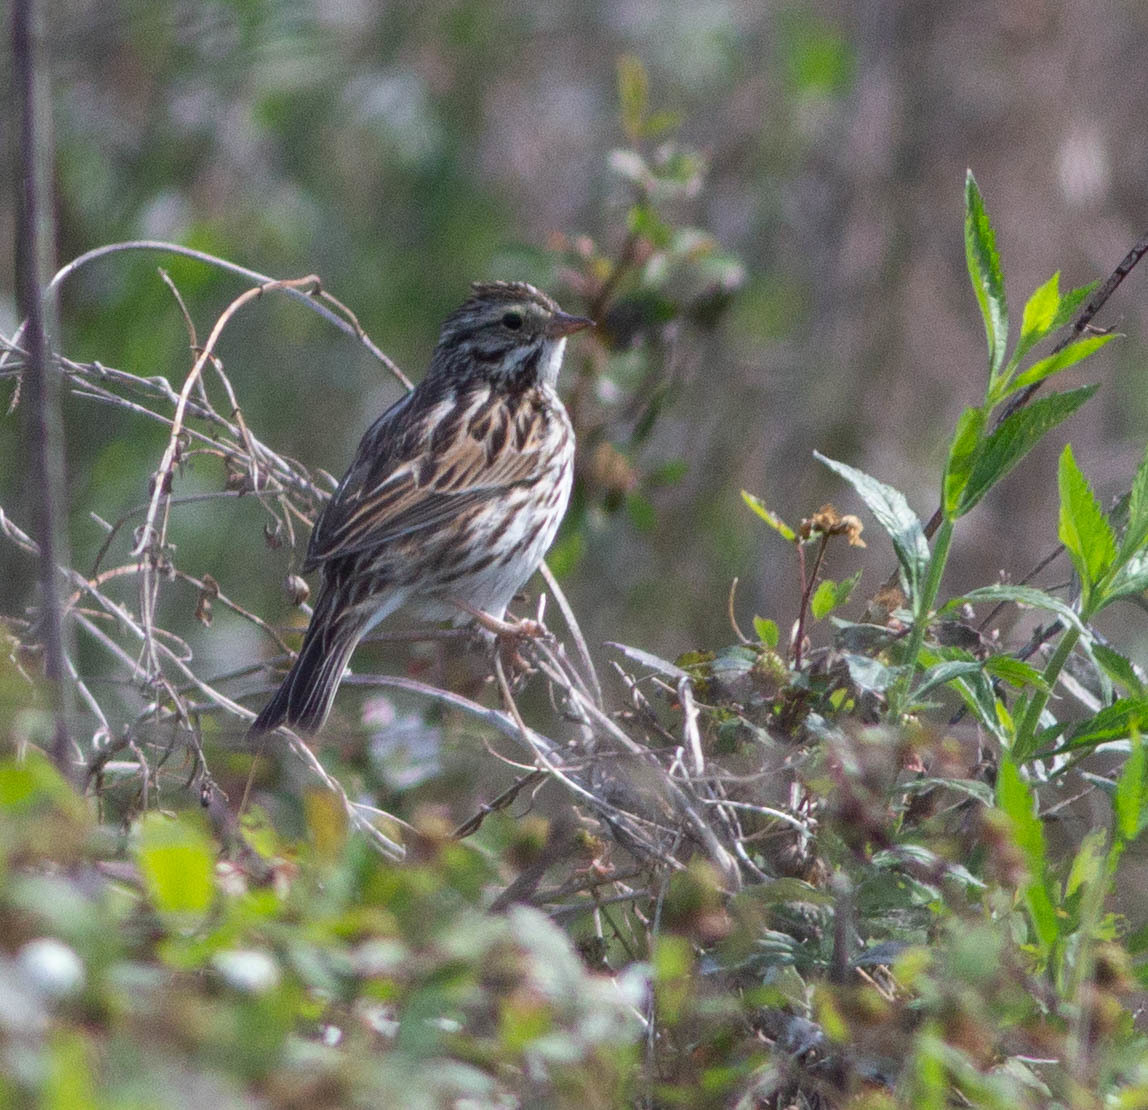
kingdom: Animalia
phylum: Chordata
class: Aves
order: Passeriformes
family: Passerellidae
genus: Passerculus
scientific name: Passerculus sandwichensis
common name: Savannah sparrow
